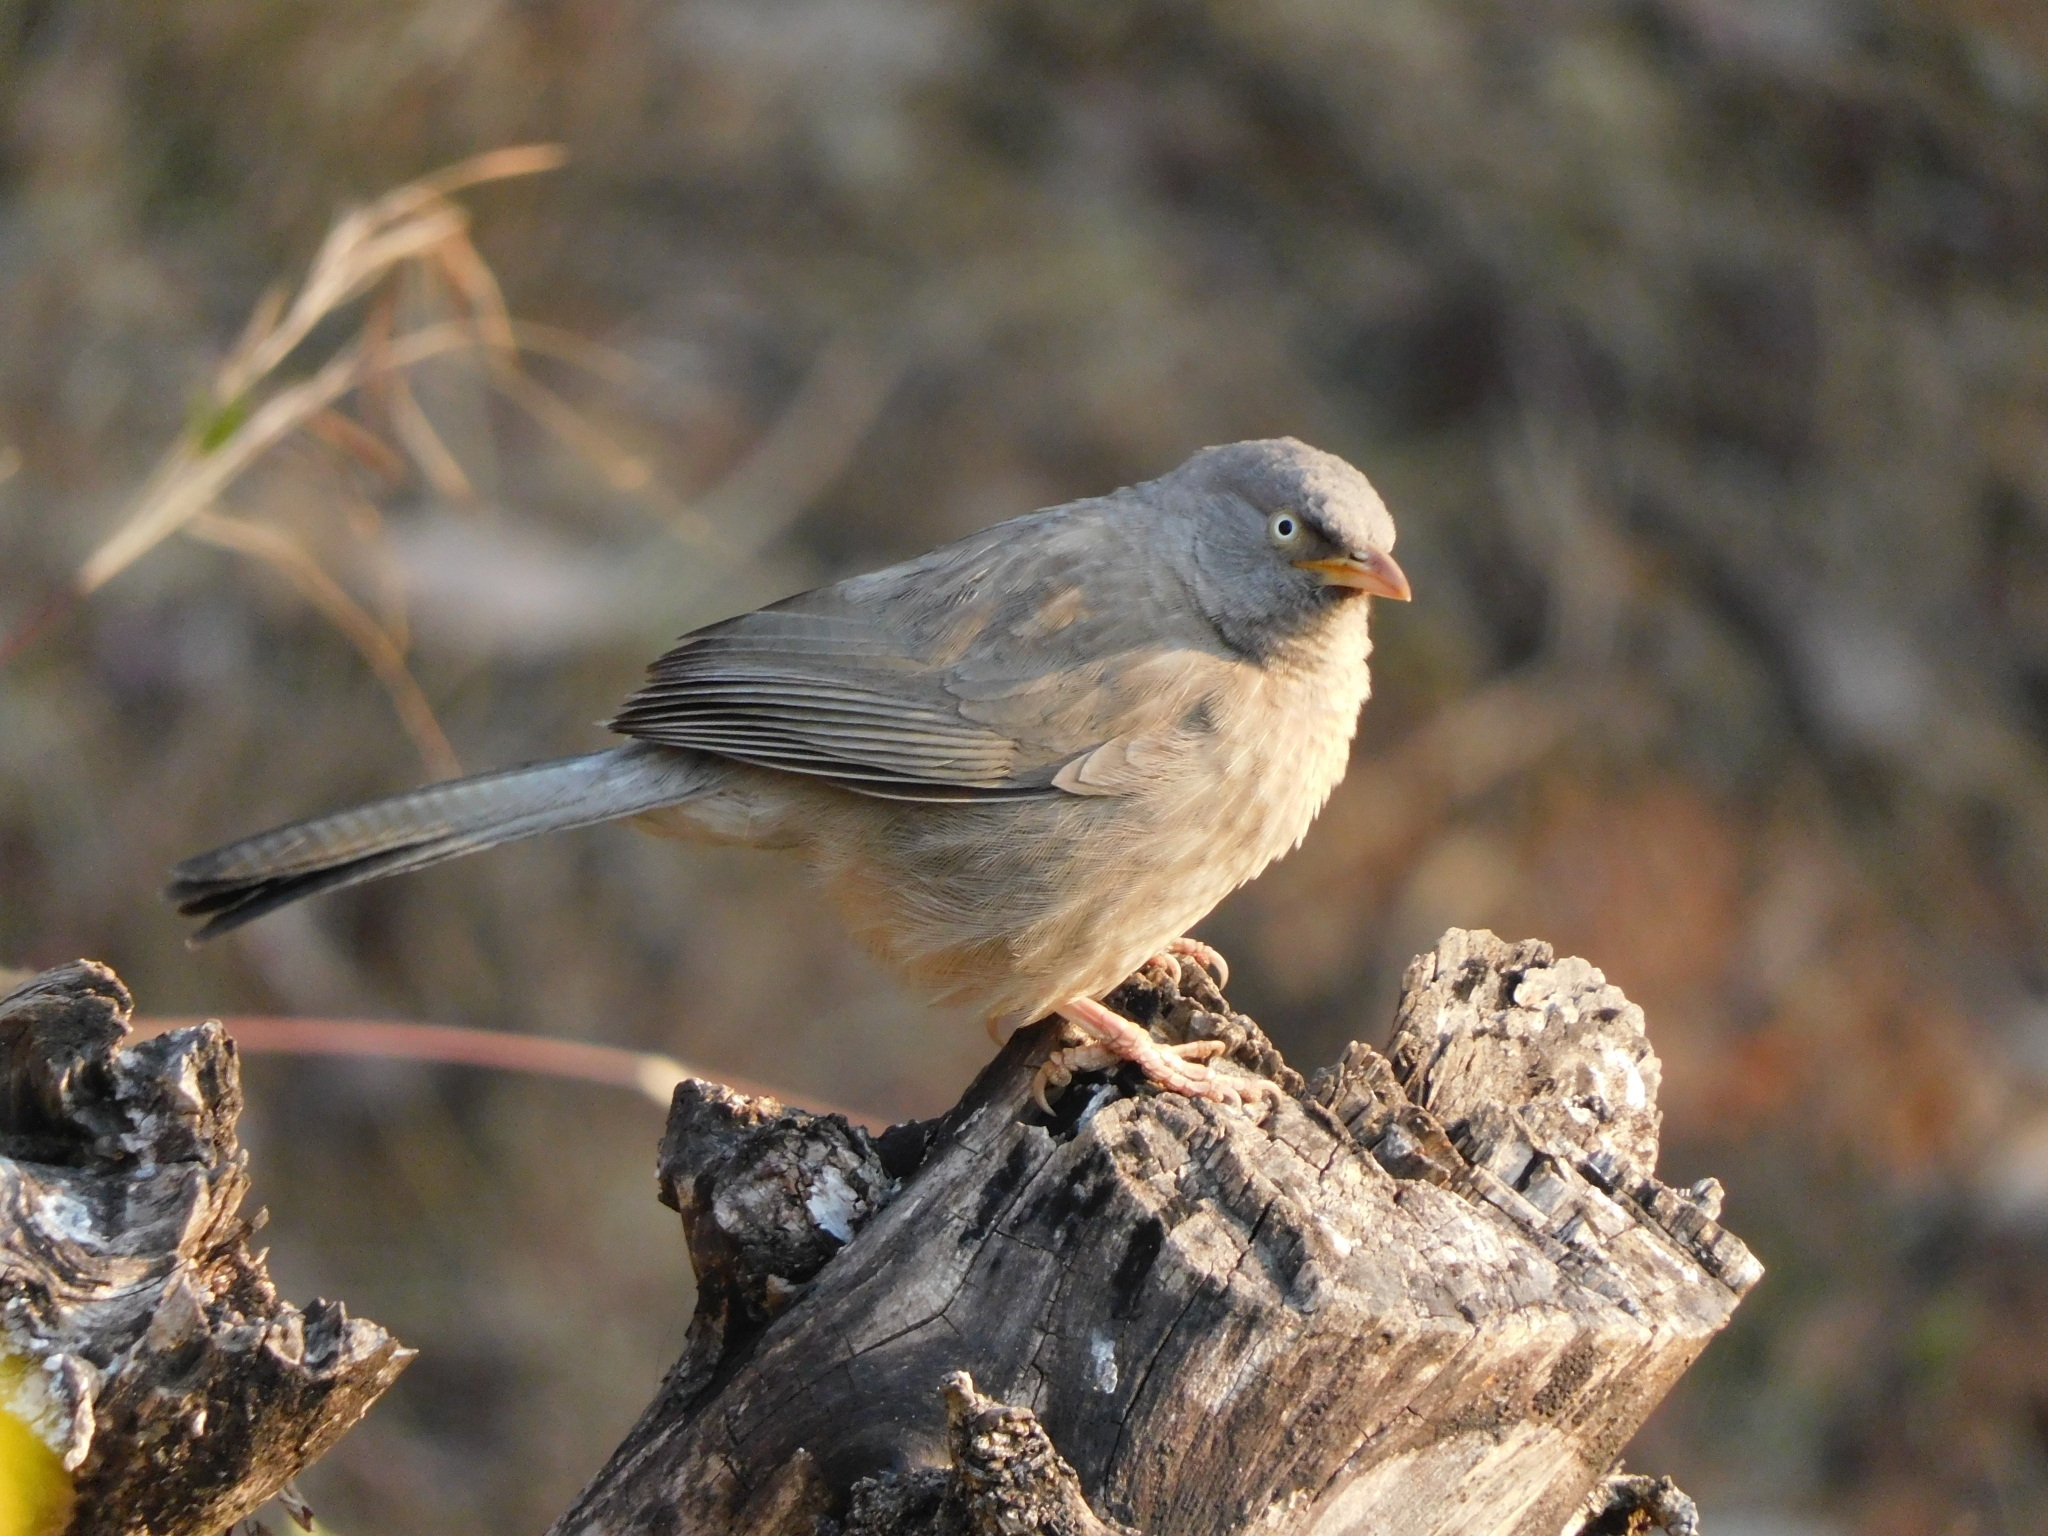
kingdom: Animalia
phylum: Chordata
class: Aves
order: Passeriformes
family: Leiothrichidae
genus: Turdoides
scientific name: Turdoides striata
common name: Jungle babbler
